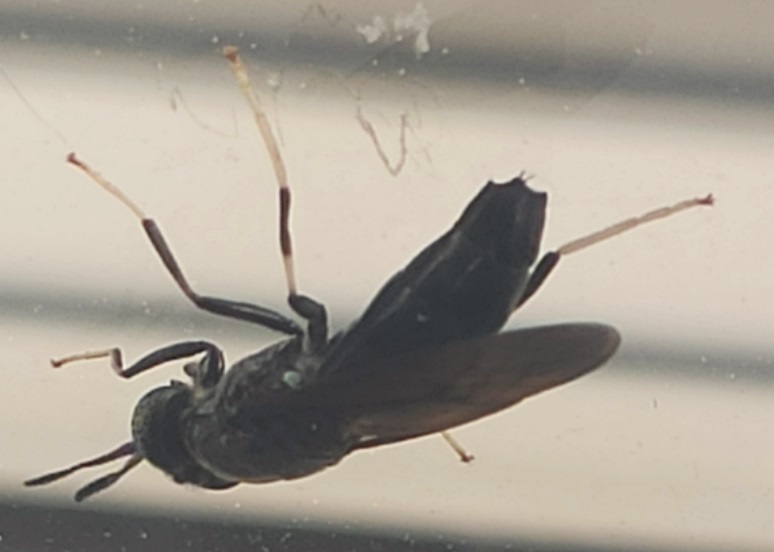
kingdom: Animalia
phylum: Arthropoda
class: Insecta
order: Diptera
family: Stratiomyidae
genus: Hermetia
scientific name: Hermetia illucens
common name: Black soldier fly
